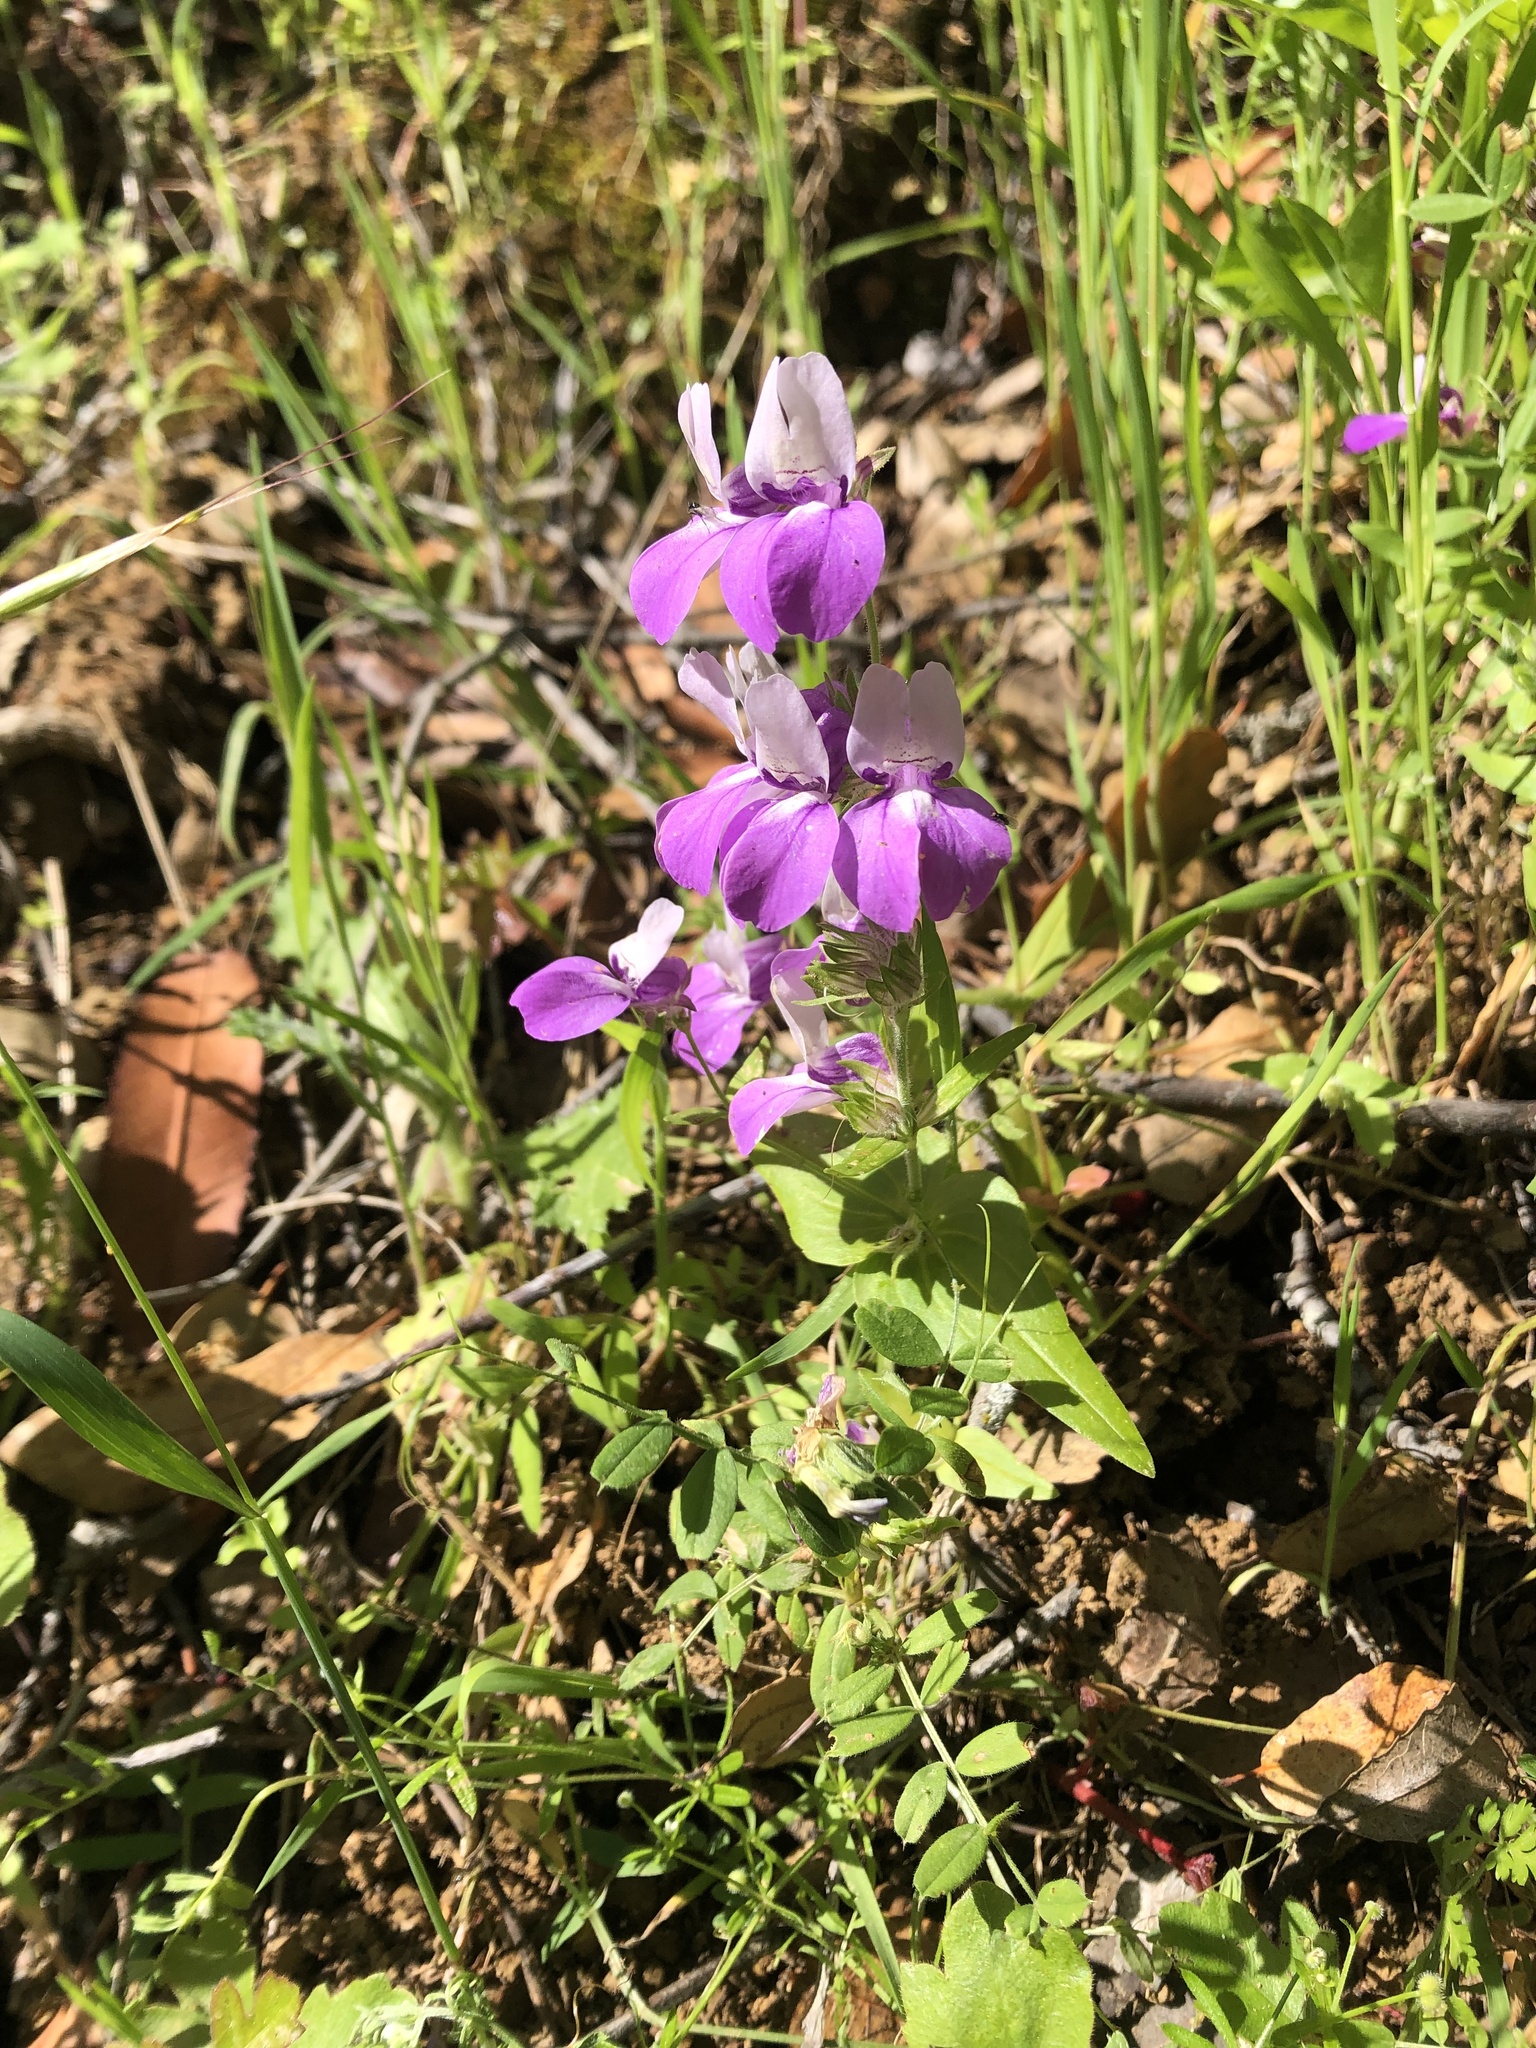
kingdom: Plantae
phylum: Tracheophyta
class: Magnoliopsida
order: Lamiales
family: Plantaginaceae
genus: Collinsia
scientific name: Collinsia heterophylla
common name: Chinese-houses
